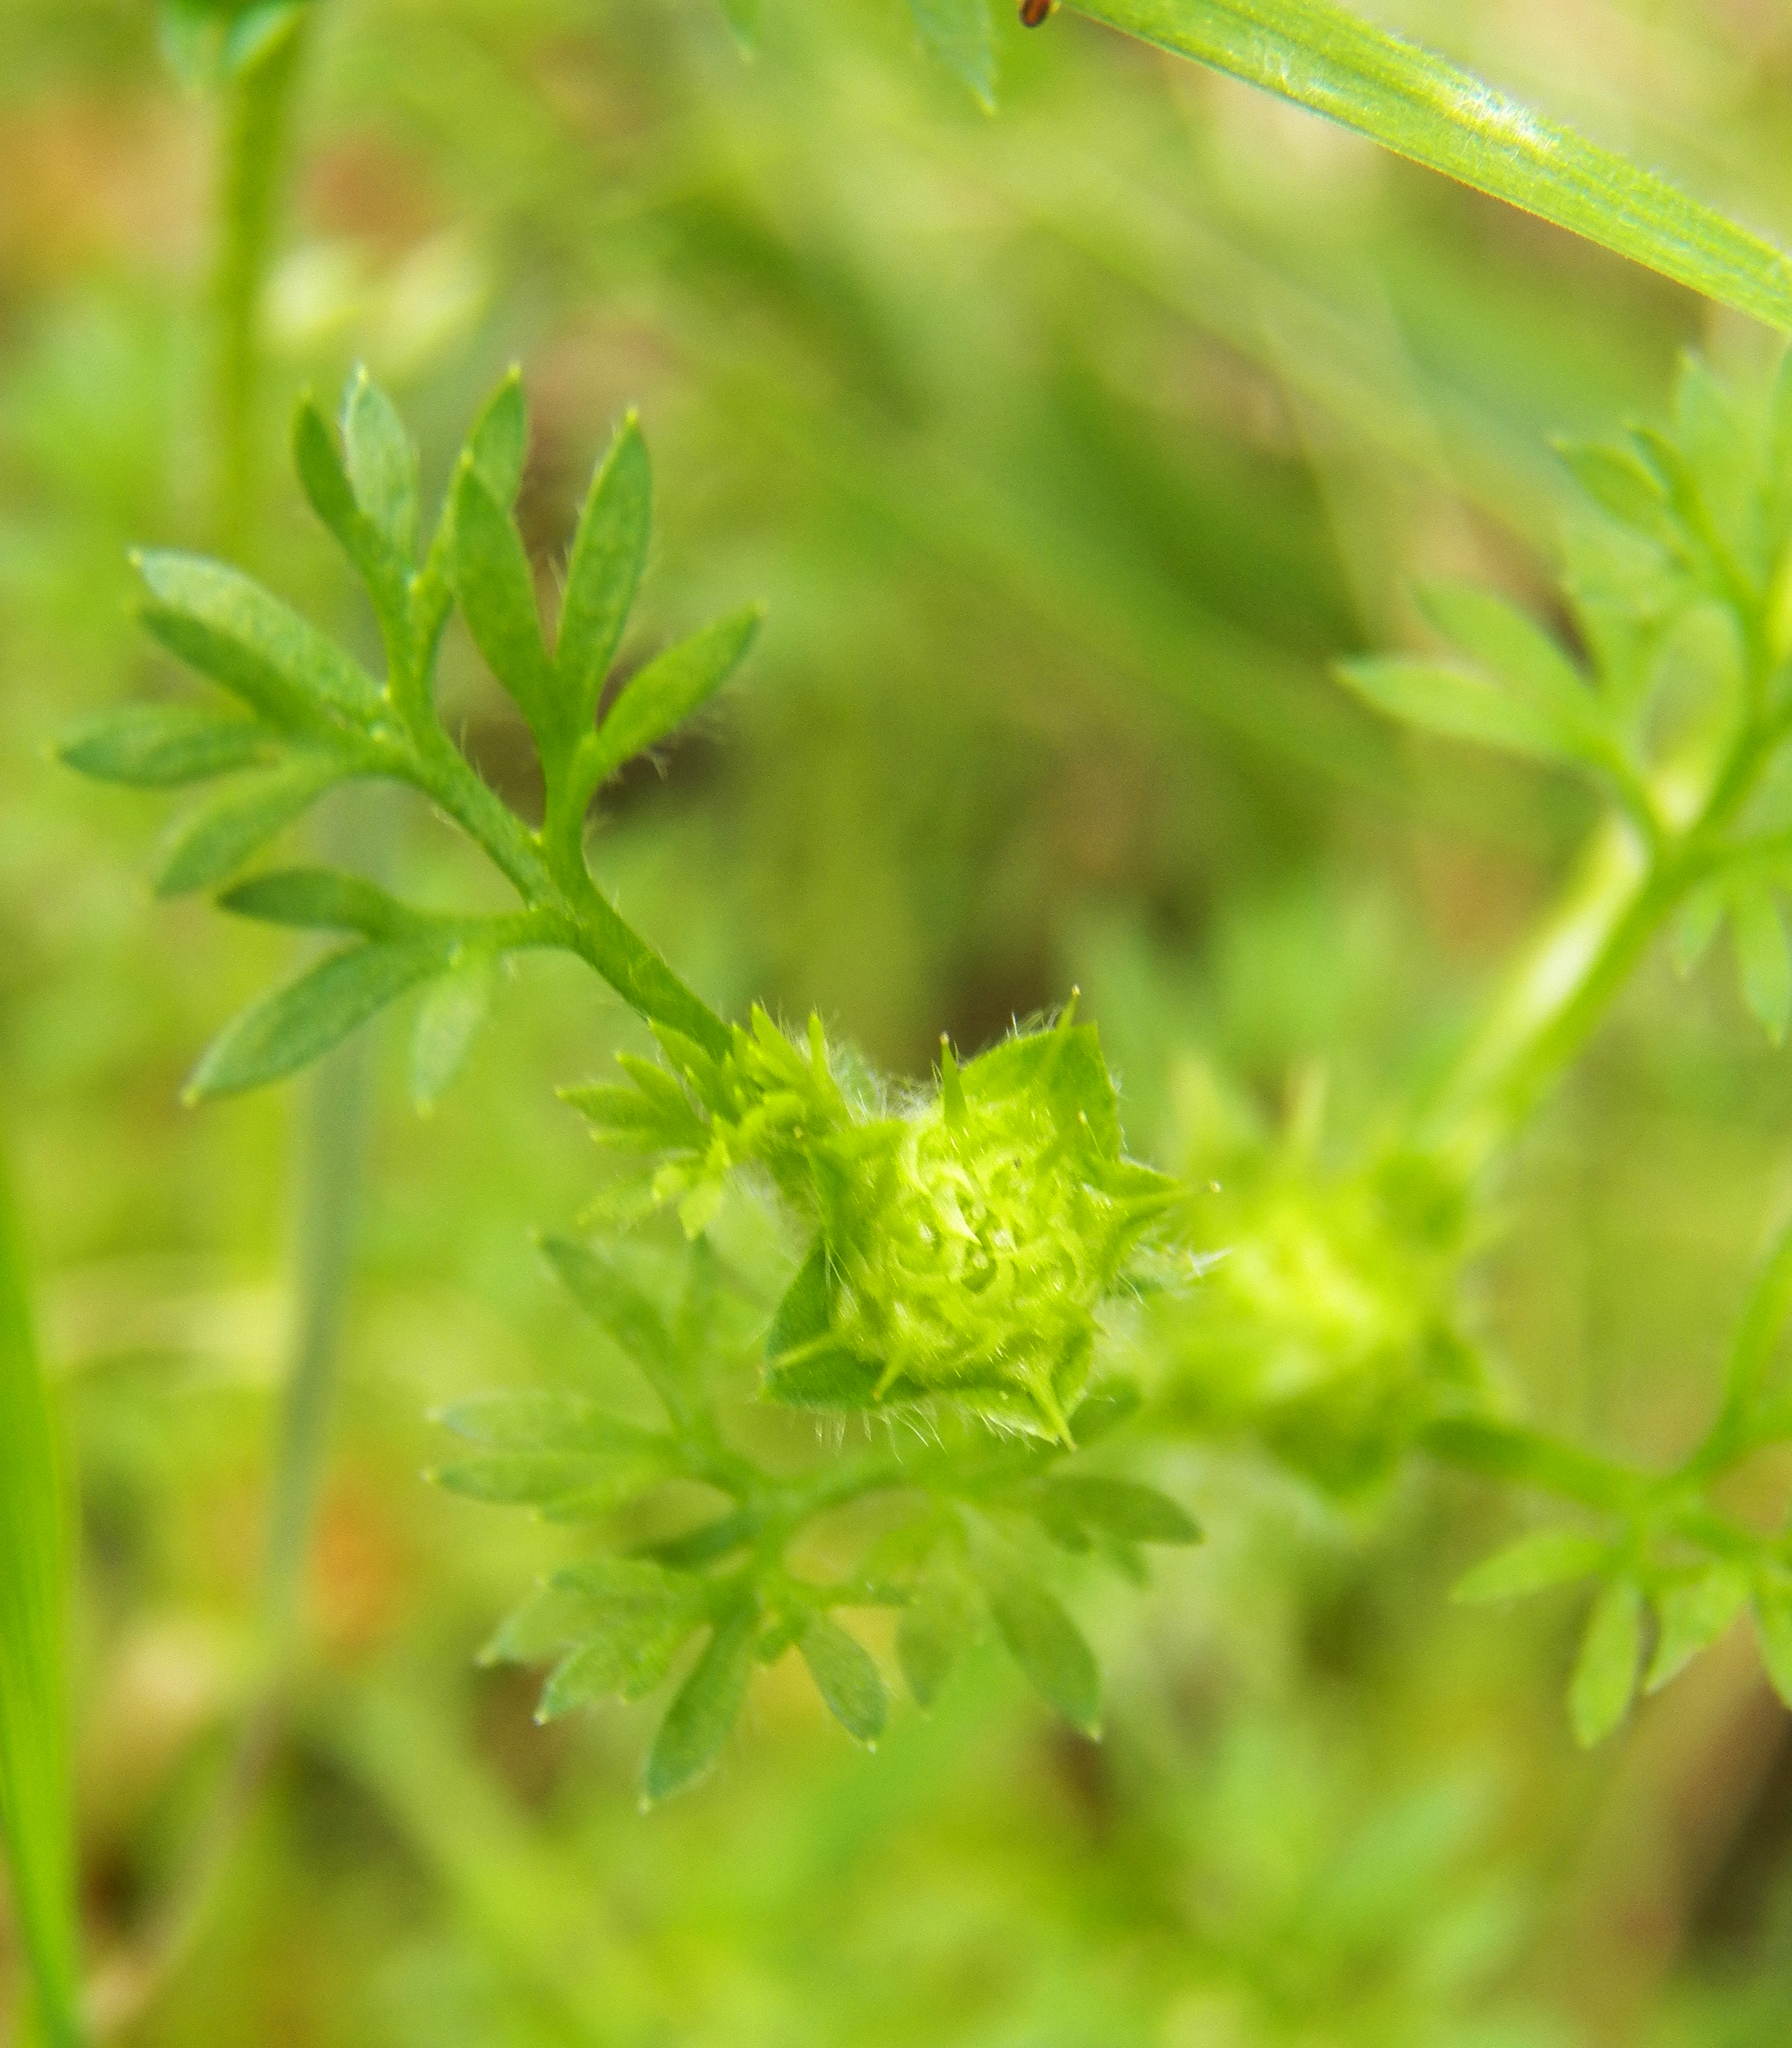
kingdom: Plantae
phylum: Tracheophyta
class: Magnoliopsida
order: Asterales
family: Asteraceae
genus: Soliva
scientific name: Soliva sessilis
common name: Field burrweed
